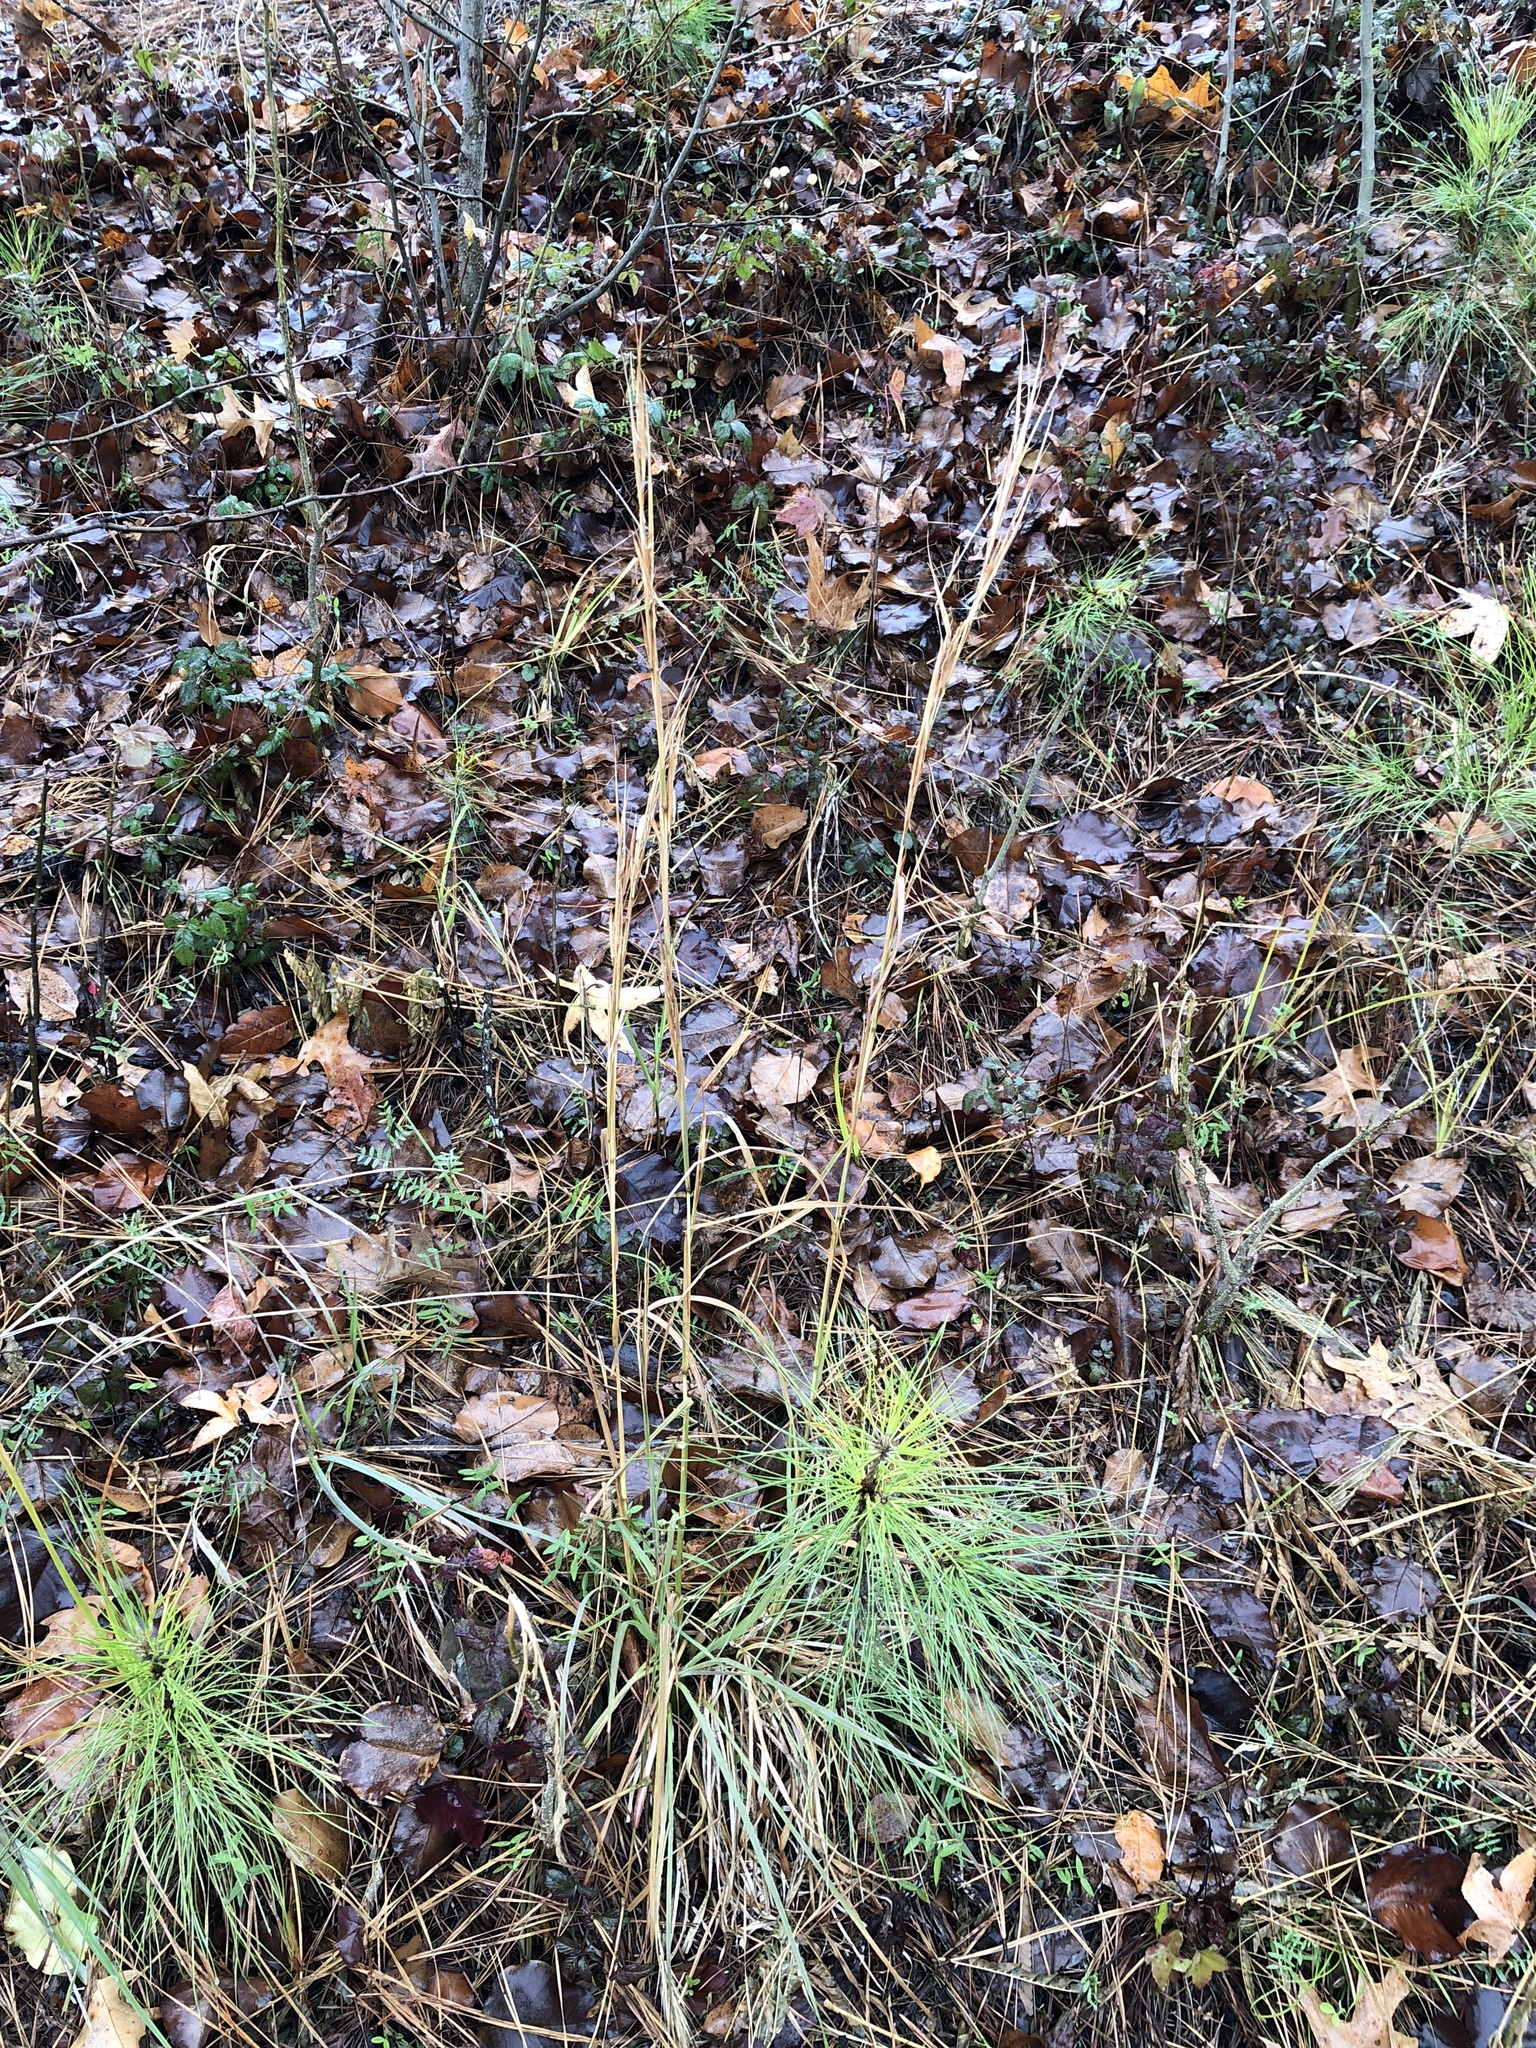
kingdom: Plantae
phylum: Tracheophyta
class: Liliopsida
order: Poales
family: Poaceae
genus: Andropogon
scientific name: Andropogon virginicus
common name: Broomsedge bluestem
